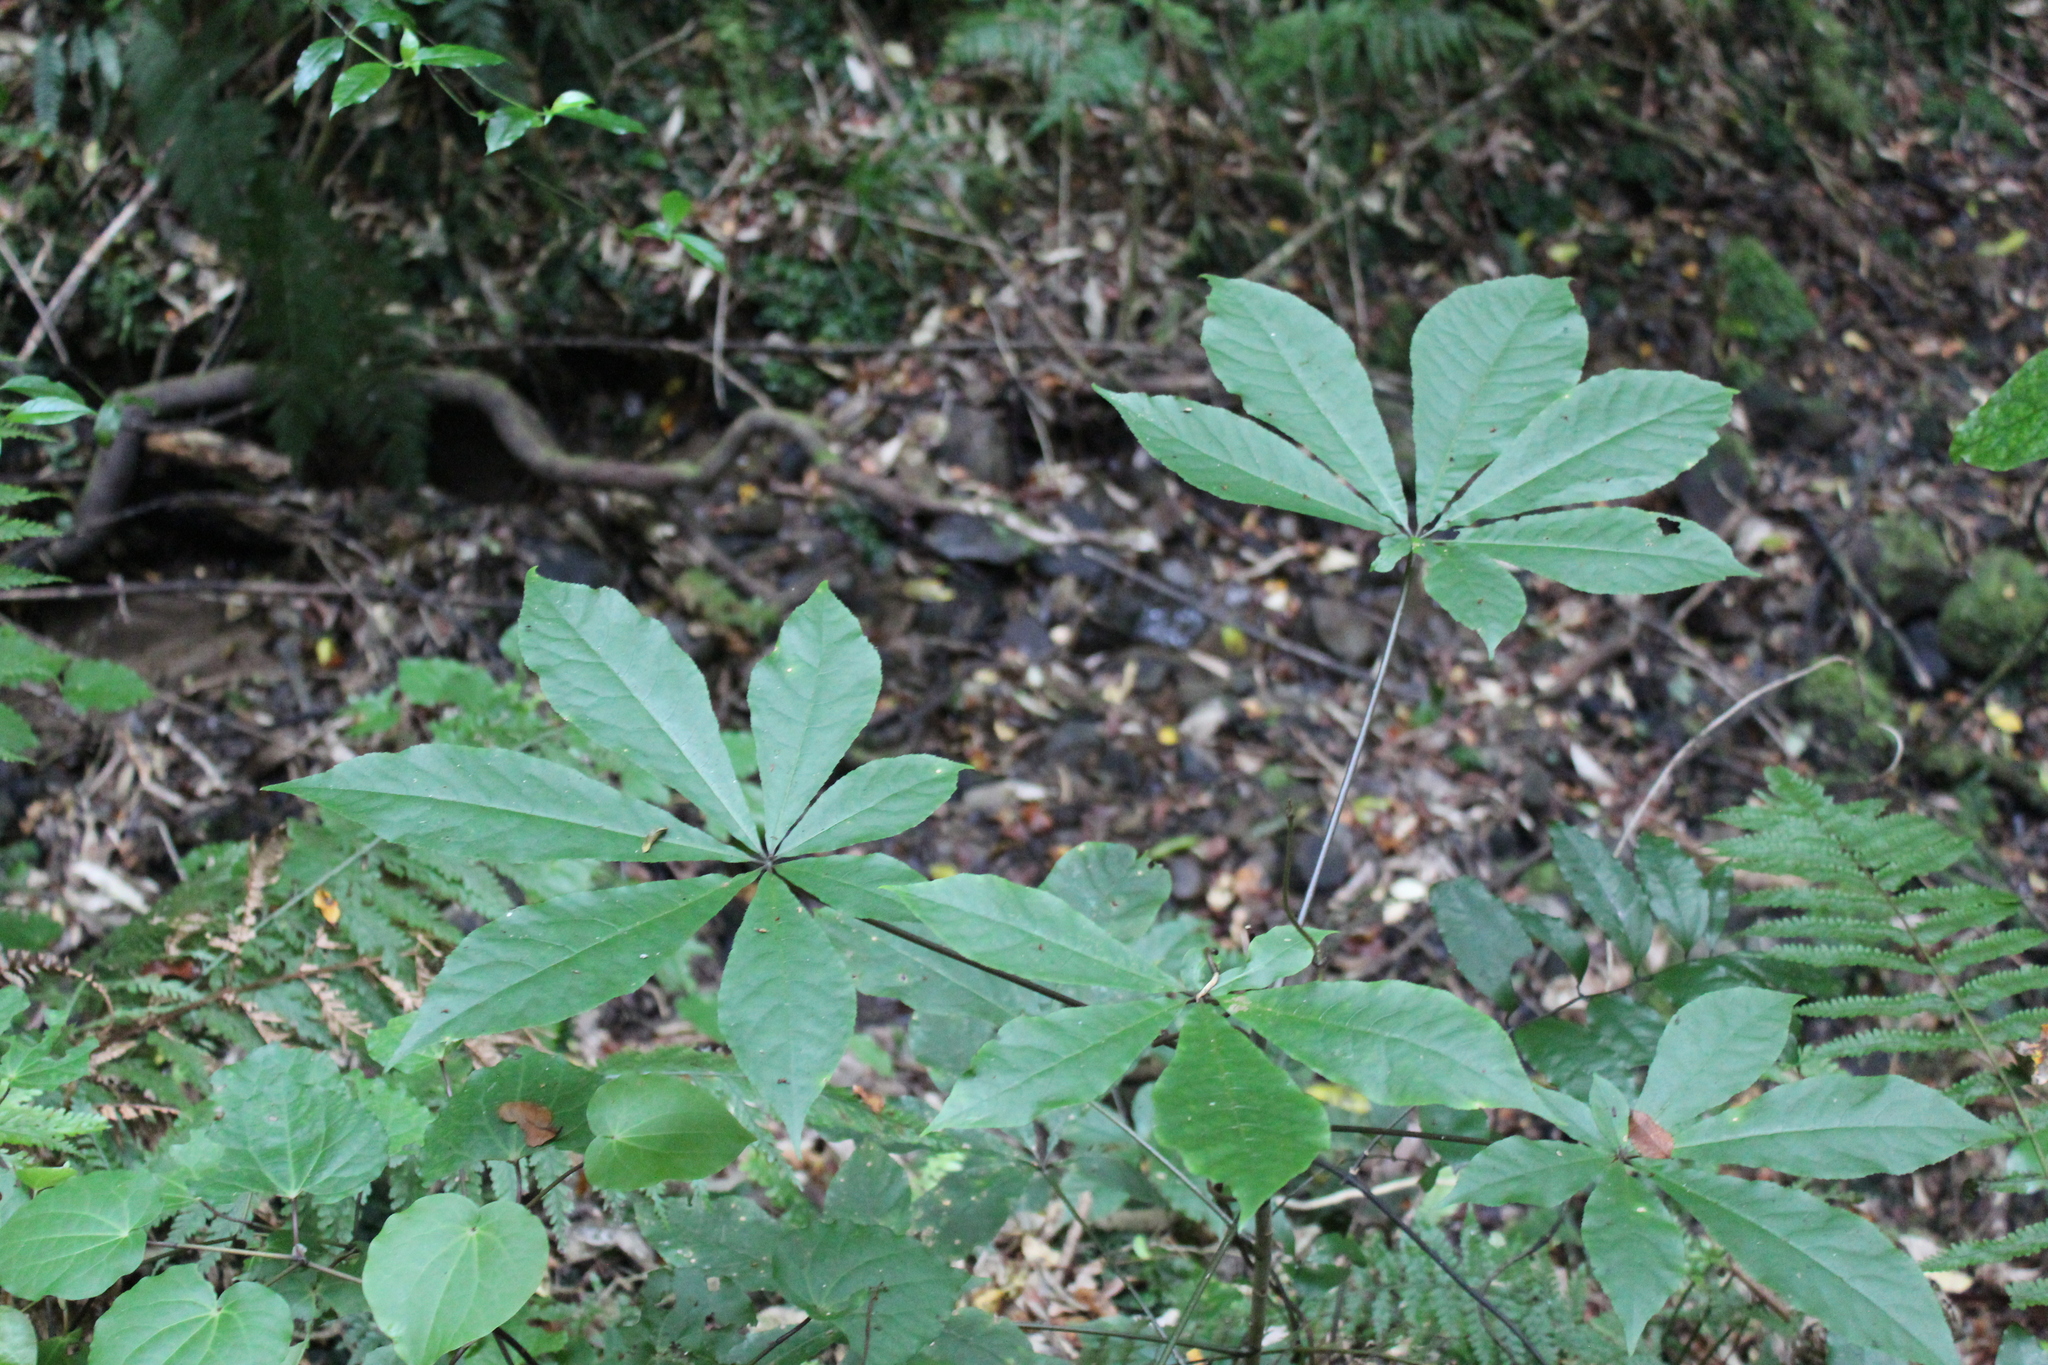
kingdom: Plantae
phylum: Tracheophyta
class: Magnoliopsida
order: Apiales
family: Araliaceae
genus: Schefflera
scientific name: Schefflera digitata
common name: Pate
